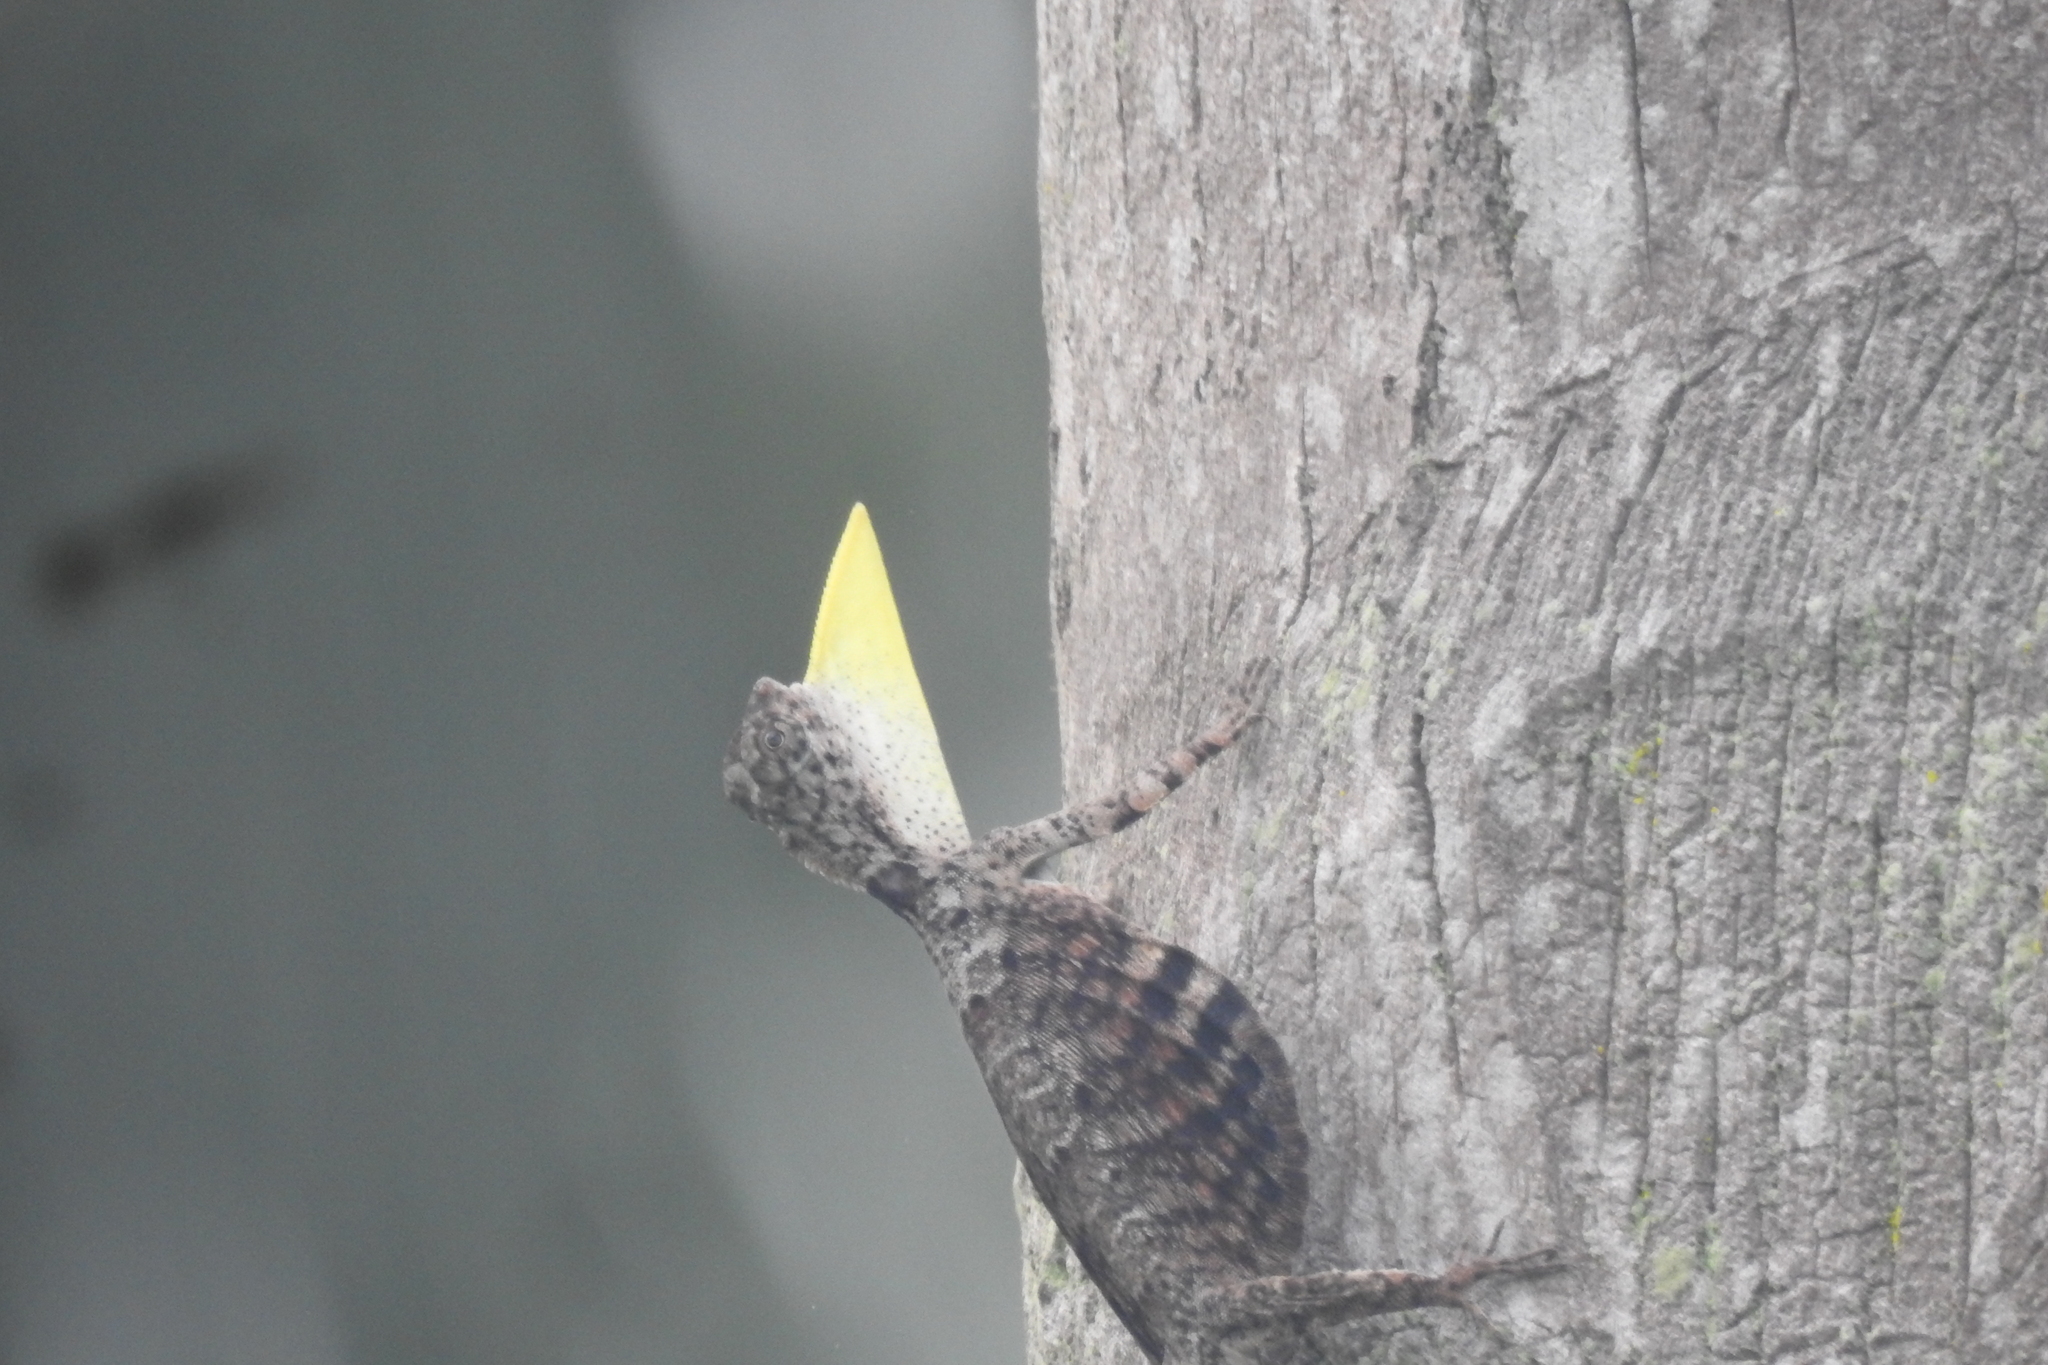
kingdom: Animalia
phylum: Chordata
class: Squamata
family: Agamidae
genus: Draco
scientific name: Draco sumatranus
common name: Common gliding lizard
